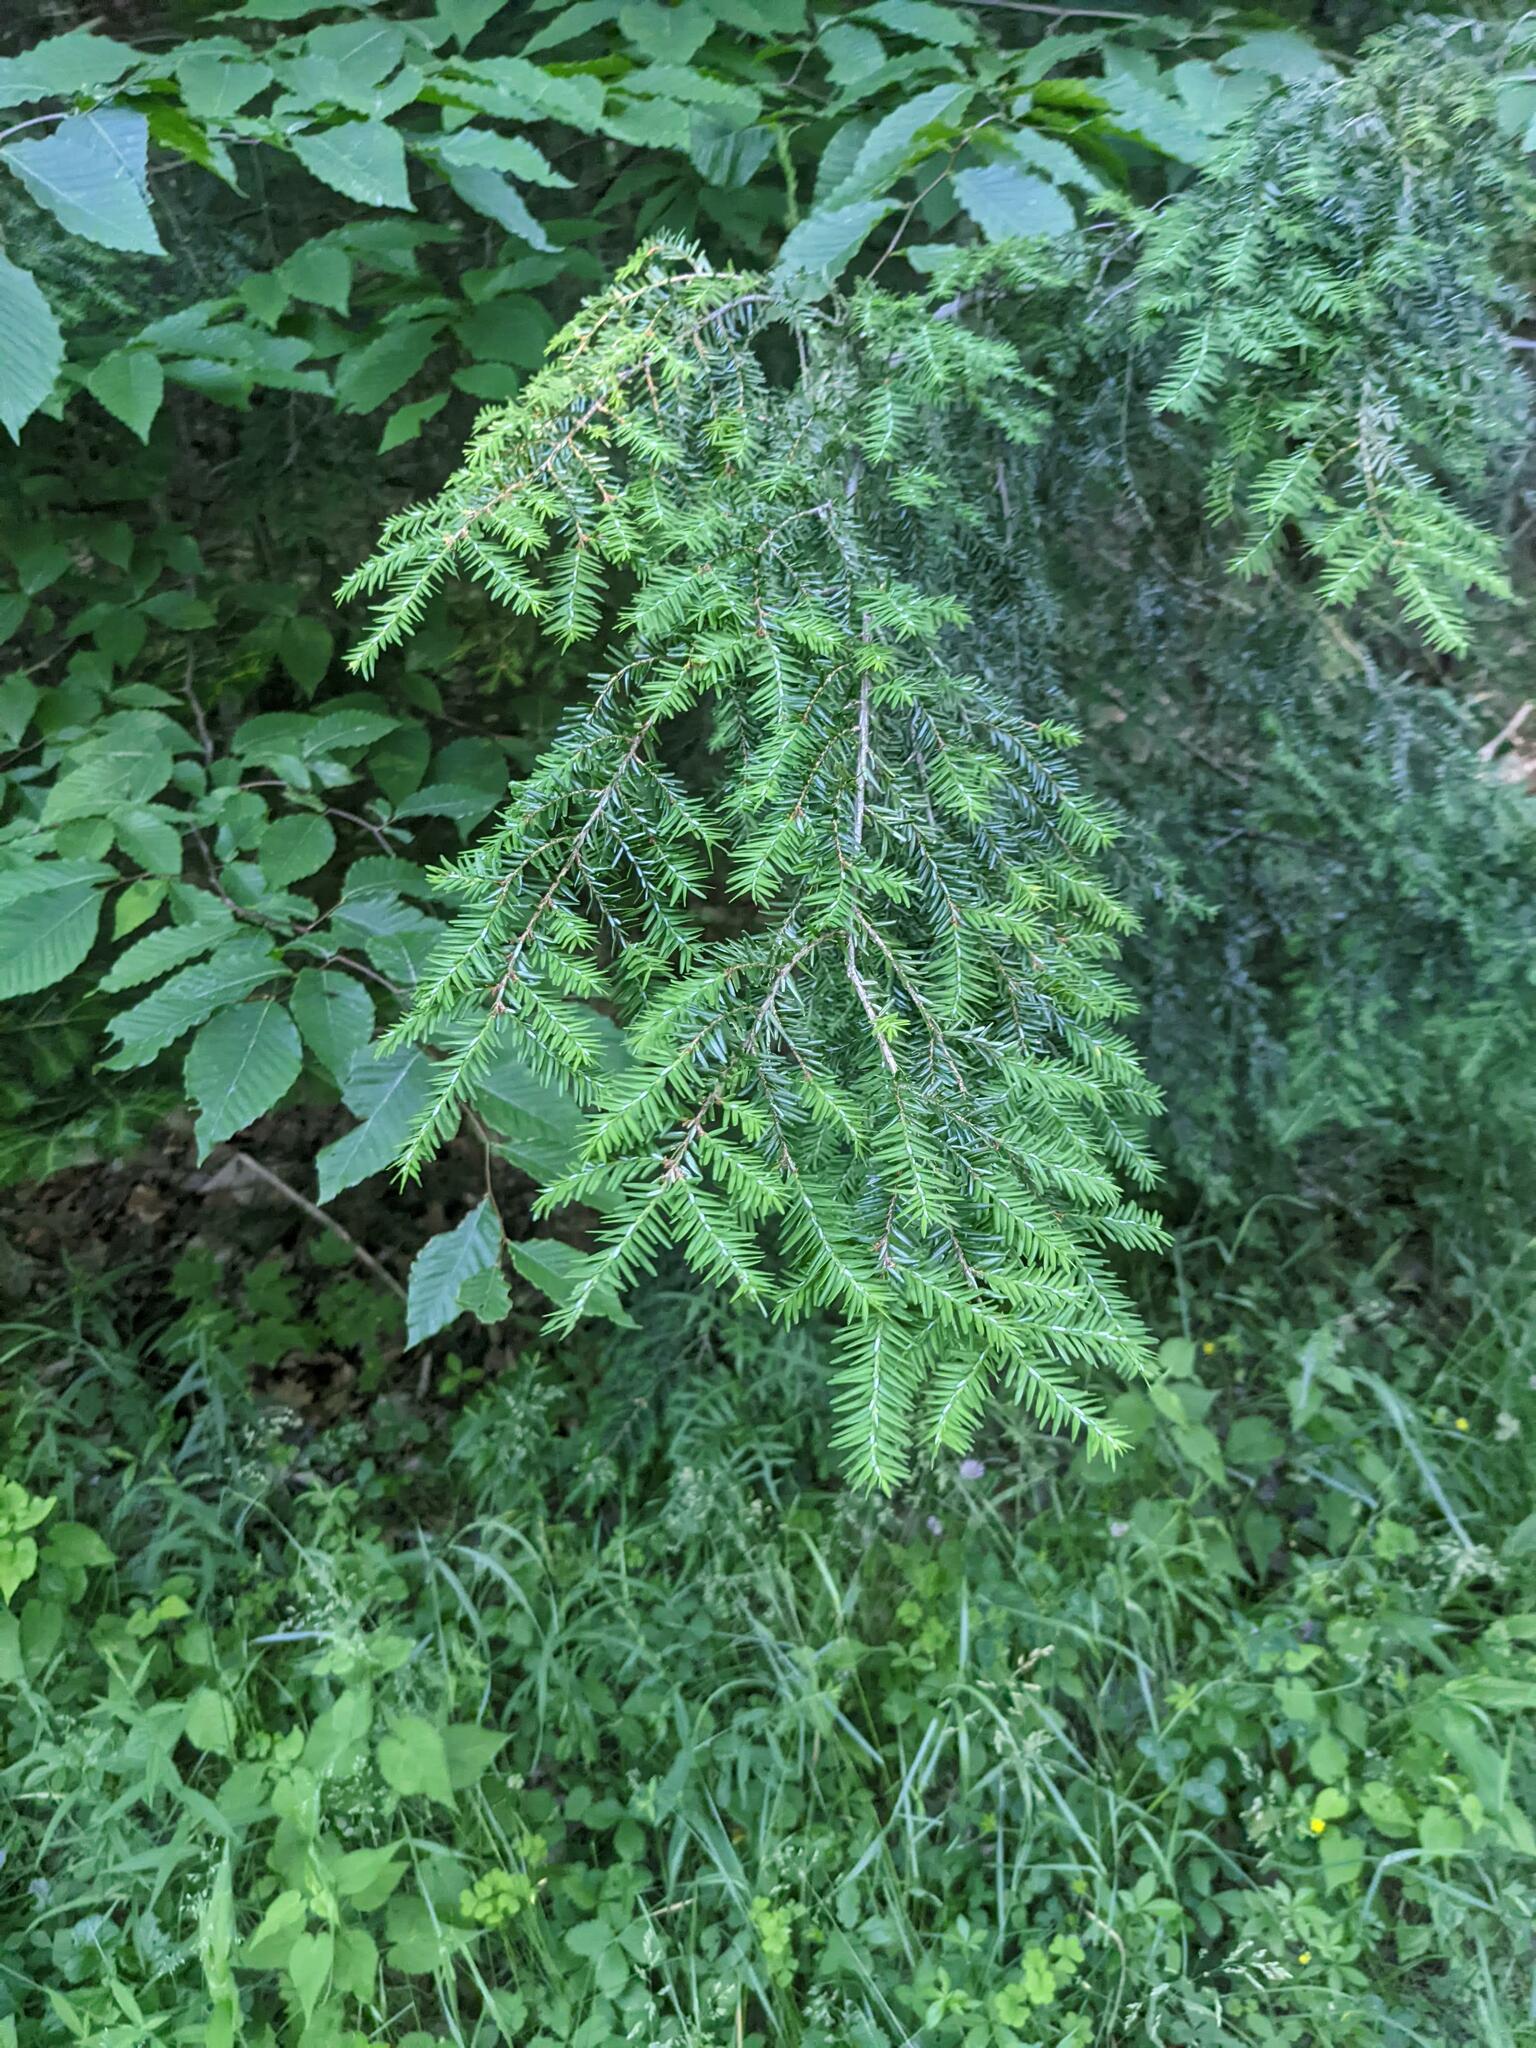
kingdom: Plantae
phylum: Tracheophyta
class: Pinopsida
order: Pinales
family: Pinaceae
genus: Tsuga
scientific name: Tsuga canadensis
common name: Eastern hemlock
